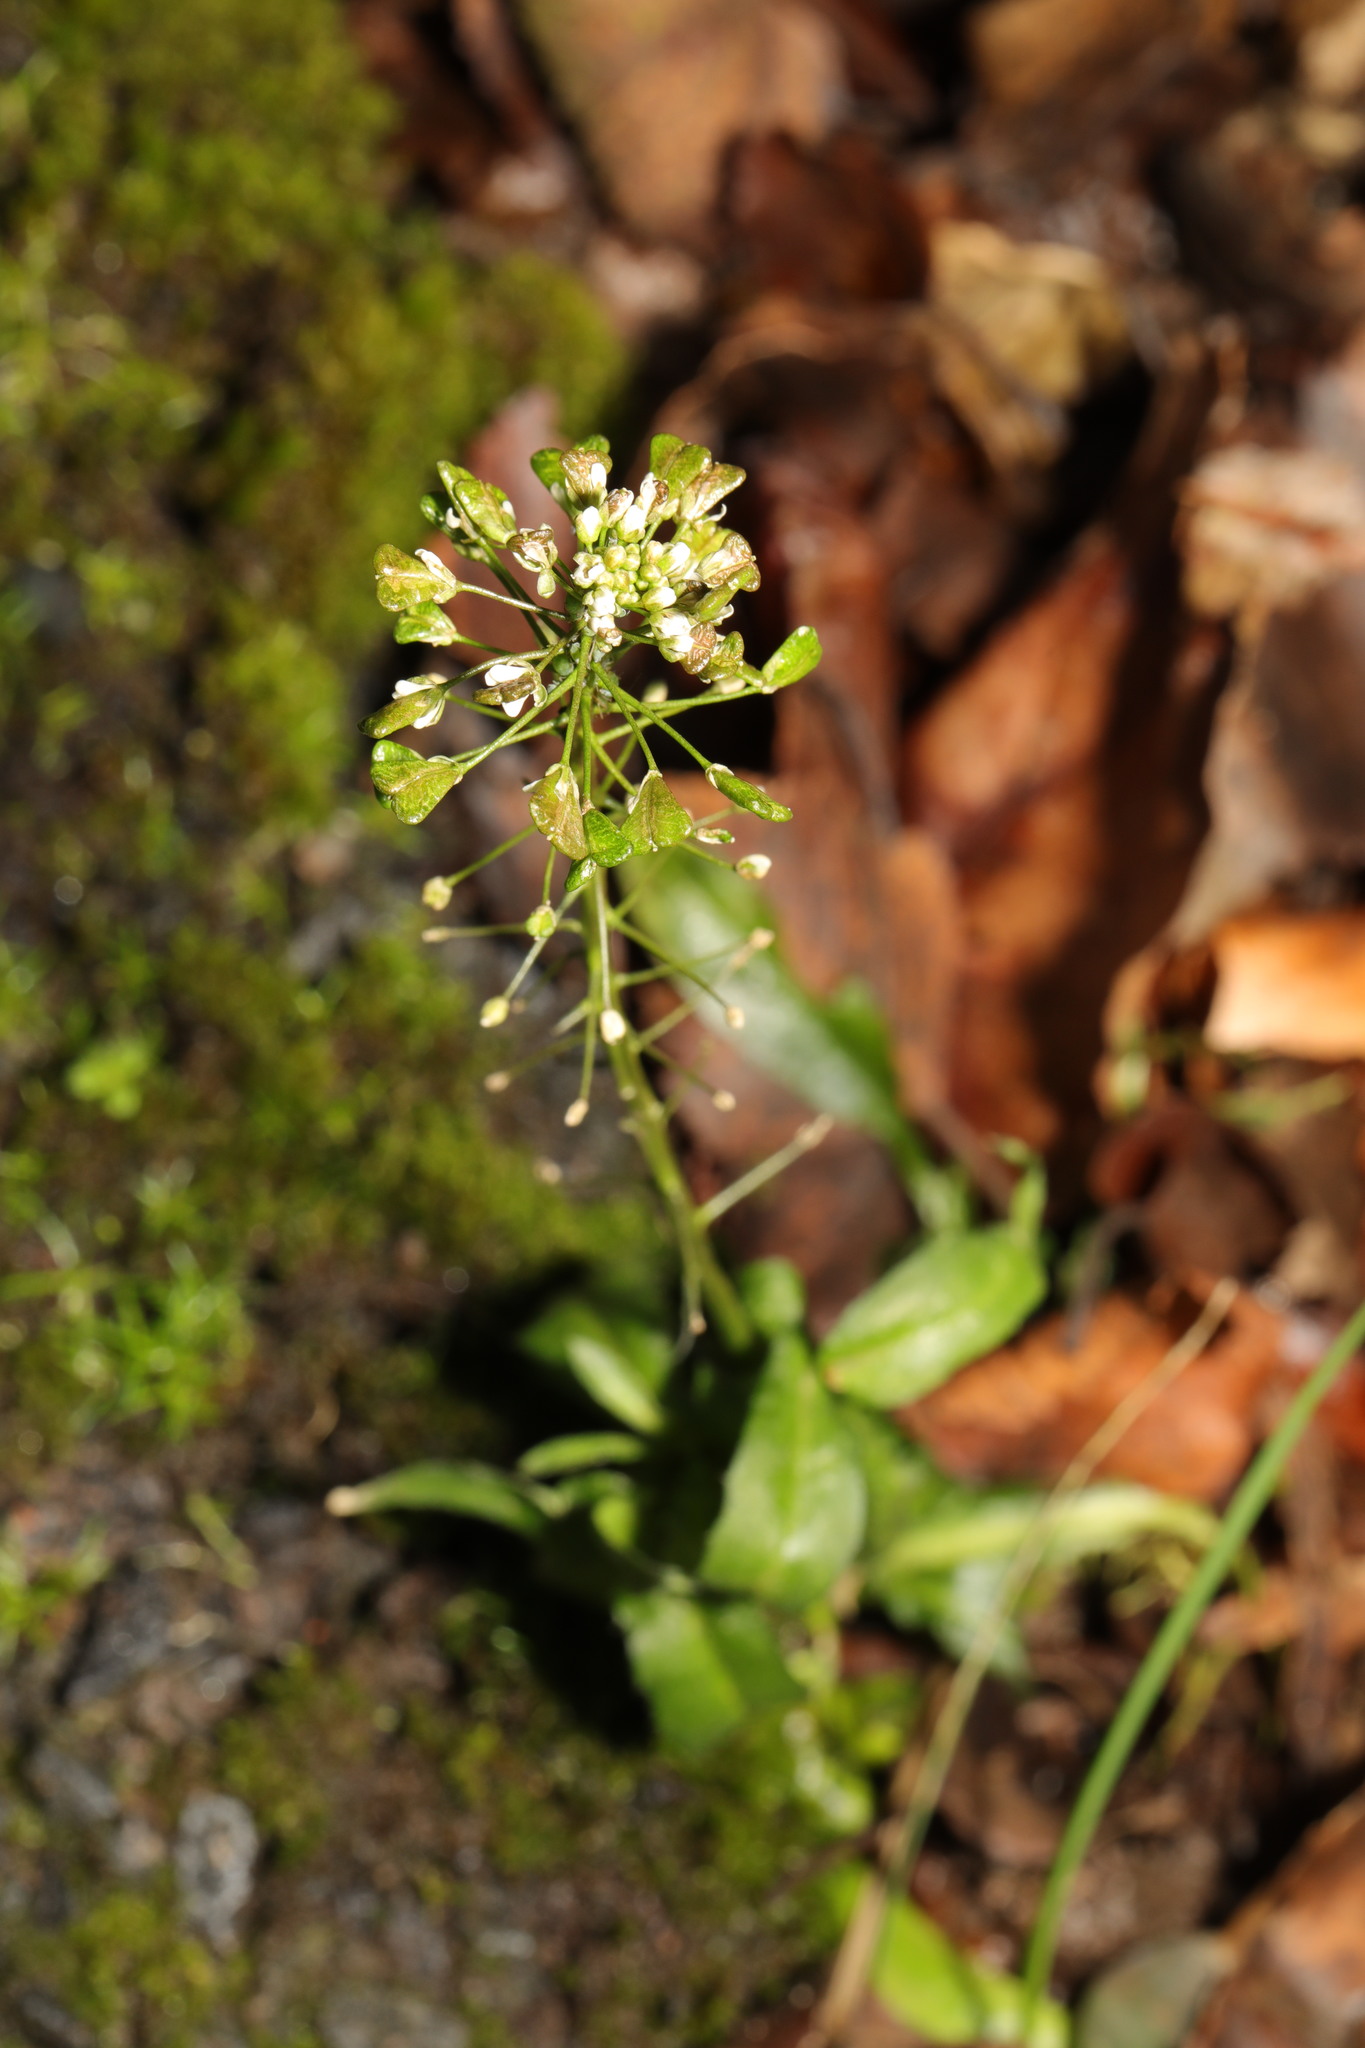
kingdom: Plantae
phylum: Tracheophyta
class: Magnoliopsida
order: Brassicales
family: Brassicaceae
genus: Capsella
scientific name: Capsella bursa-pastoris
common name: Shepherd's purse
